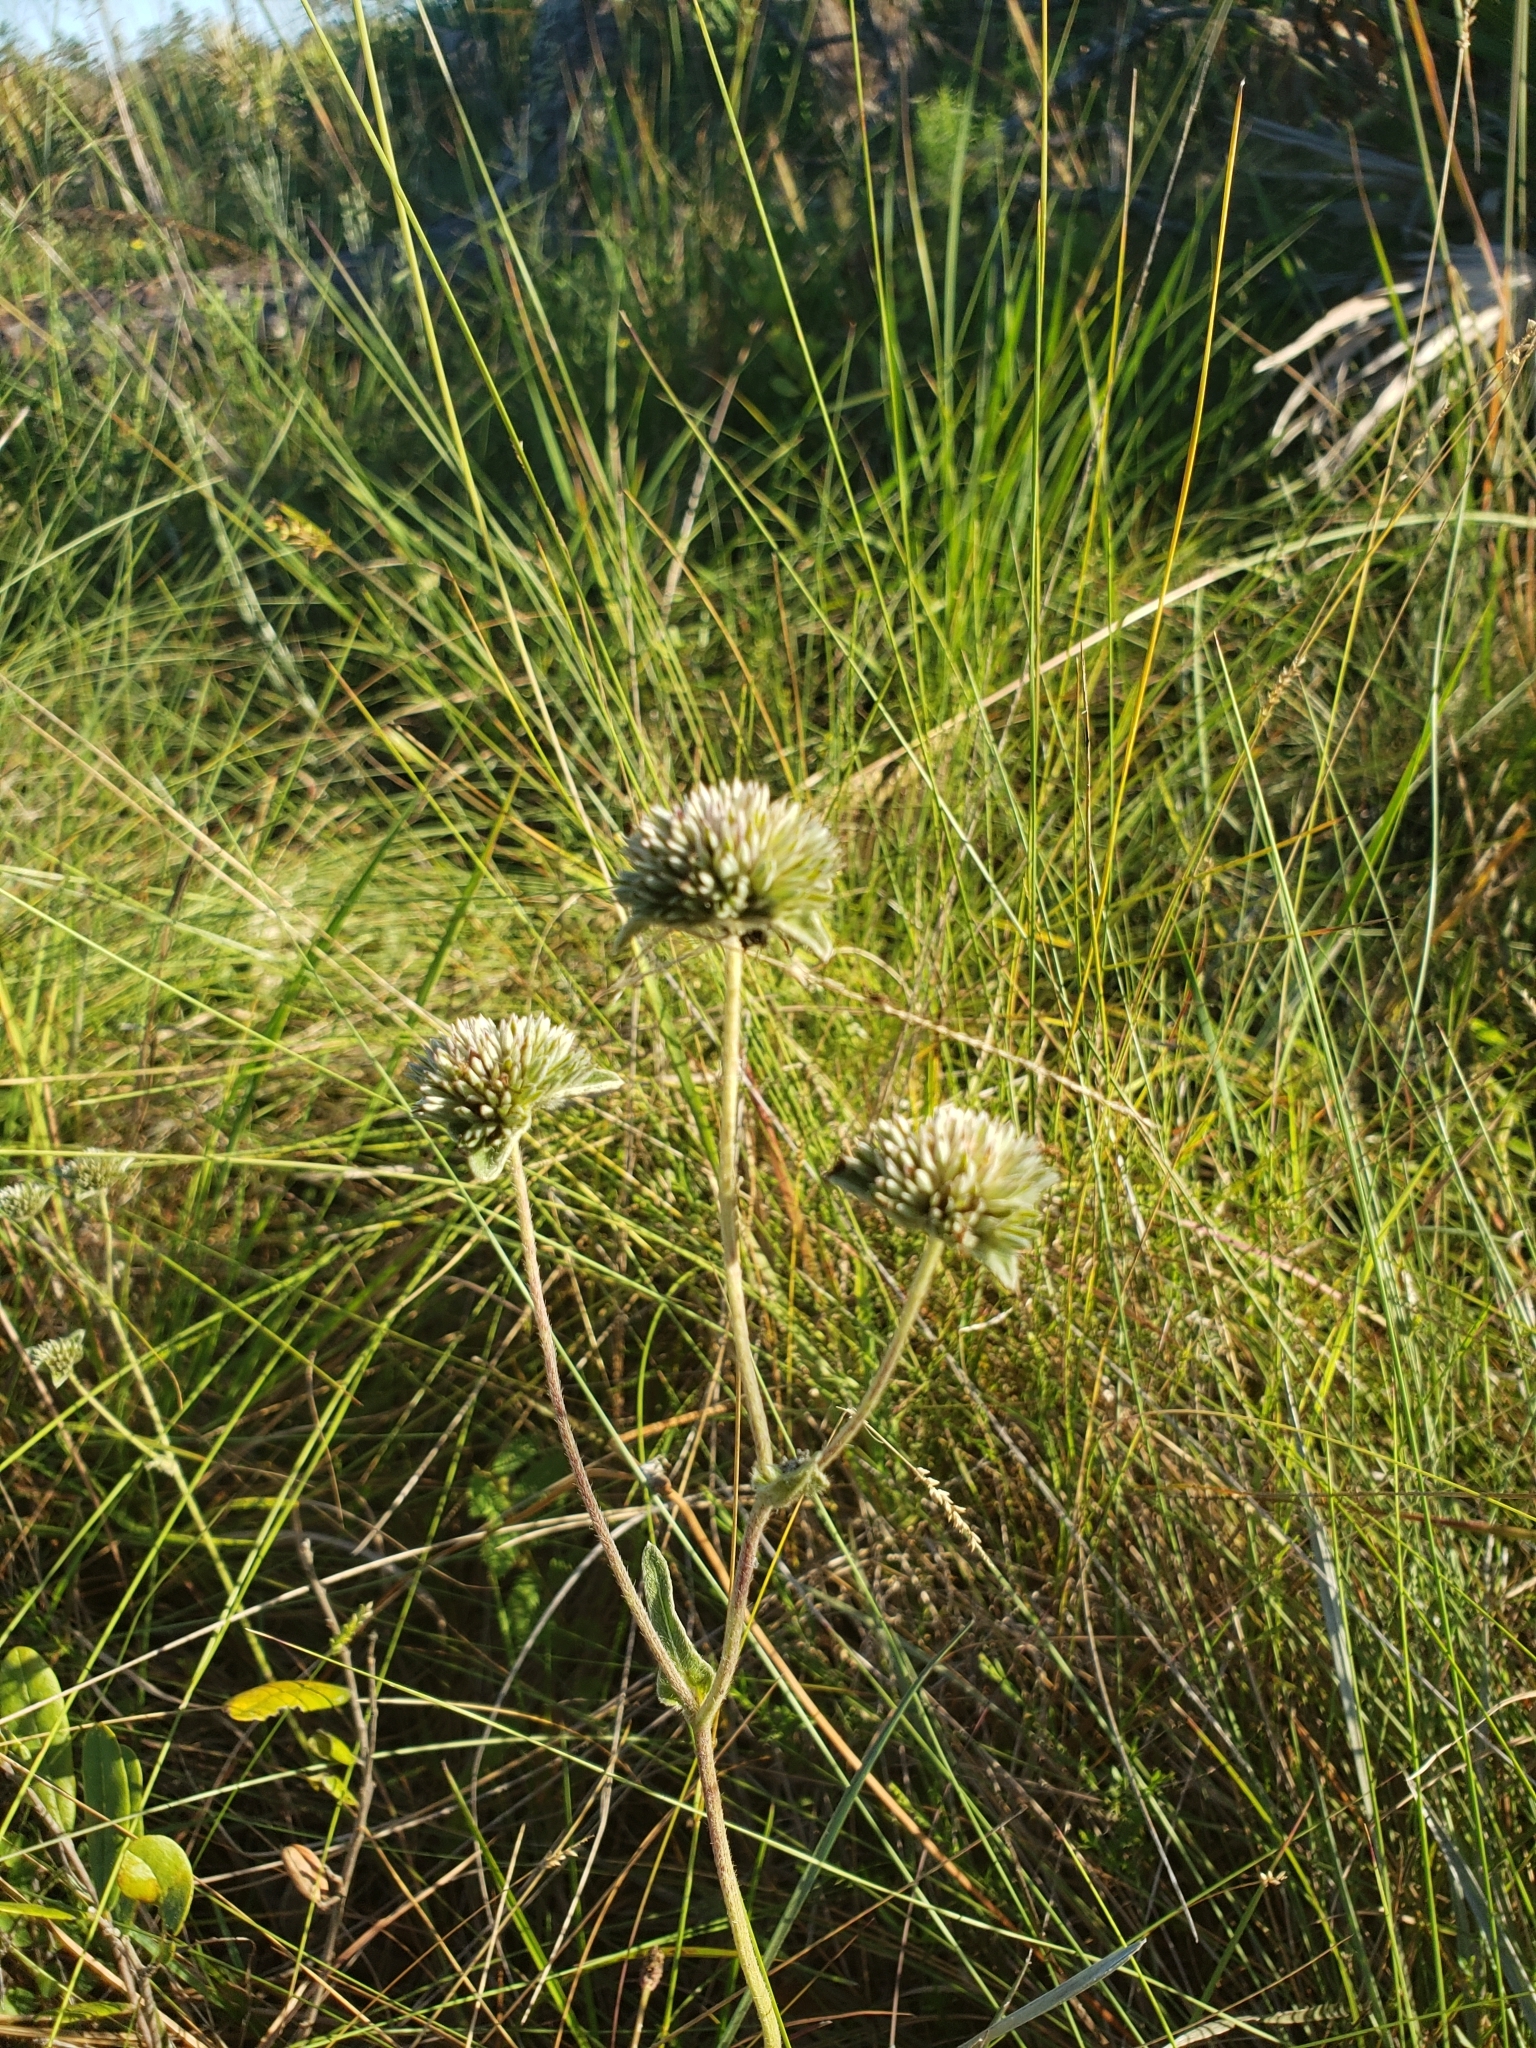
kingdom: Plantae
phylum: Tracheophyta
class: Magnoliopsida
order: Asterales
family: Asteraceae
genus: Elephantopus
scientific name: Elephantopus elatus
